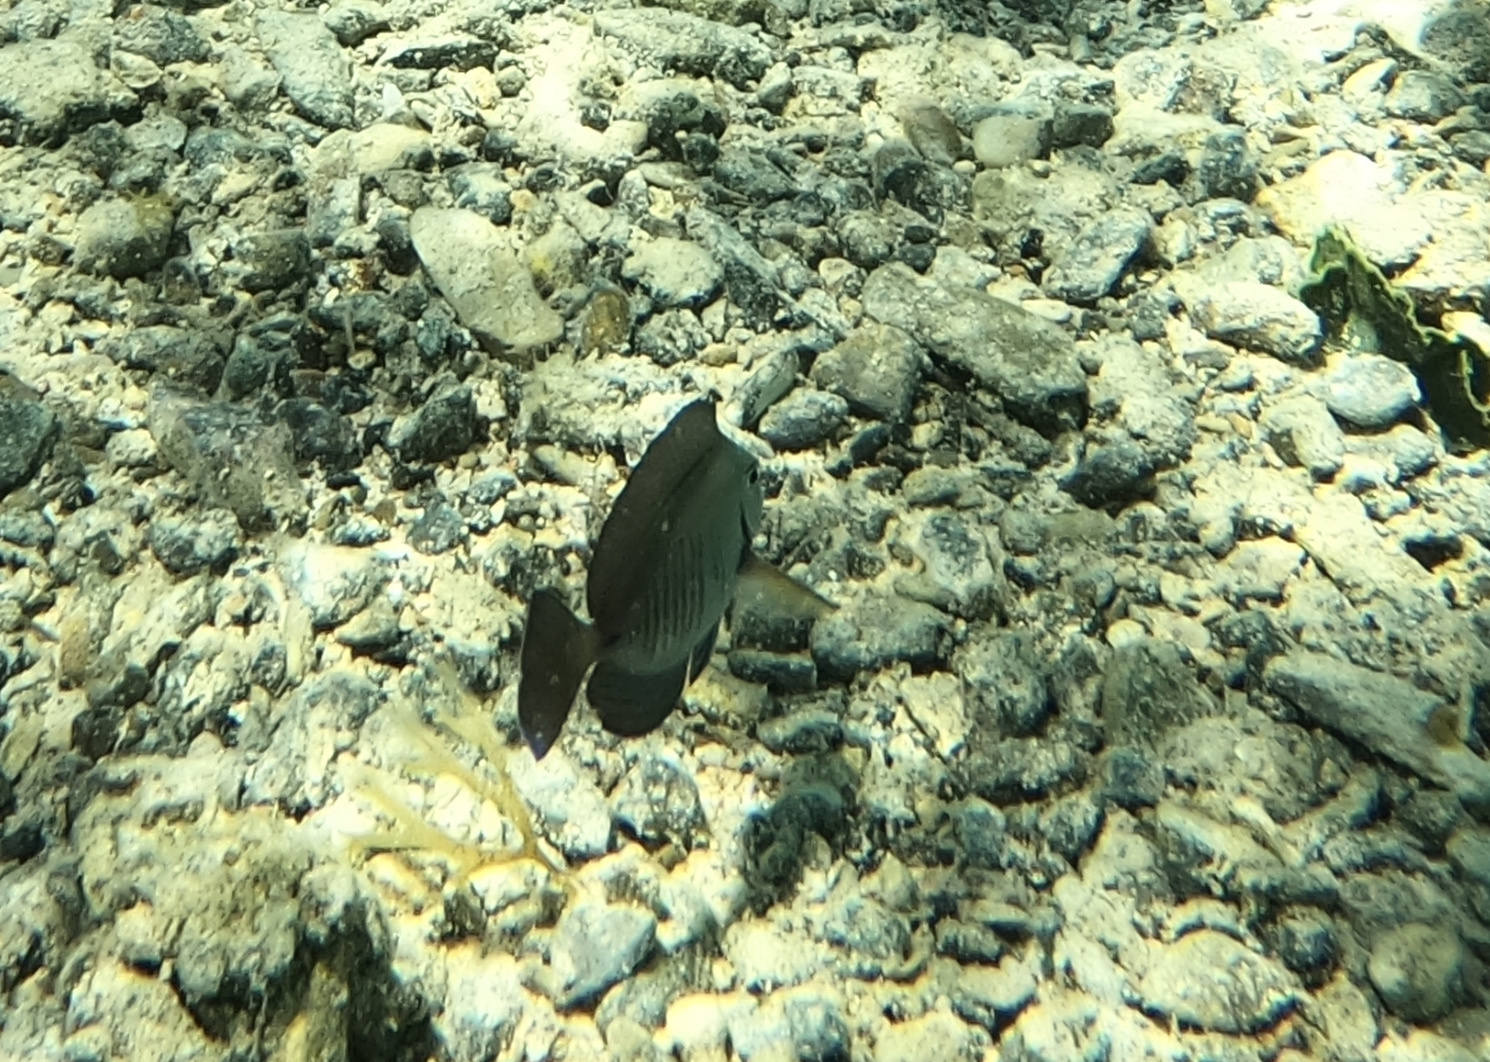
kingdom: Animalia
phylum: Chordata
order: Perciformes
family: Acanthuridae
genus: Acanthurus
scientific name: Acanthurus chirurgus
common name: Doctorfish
